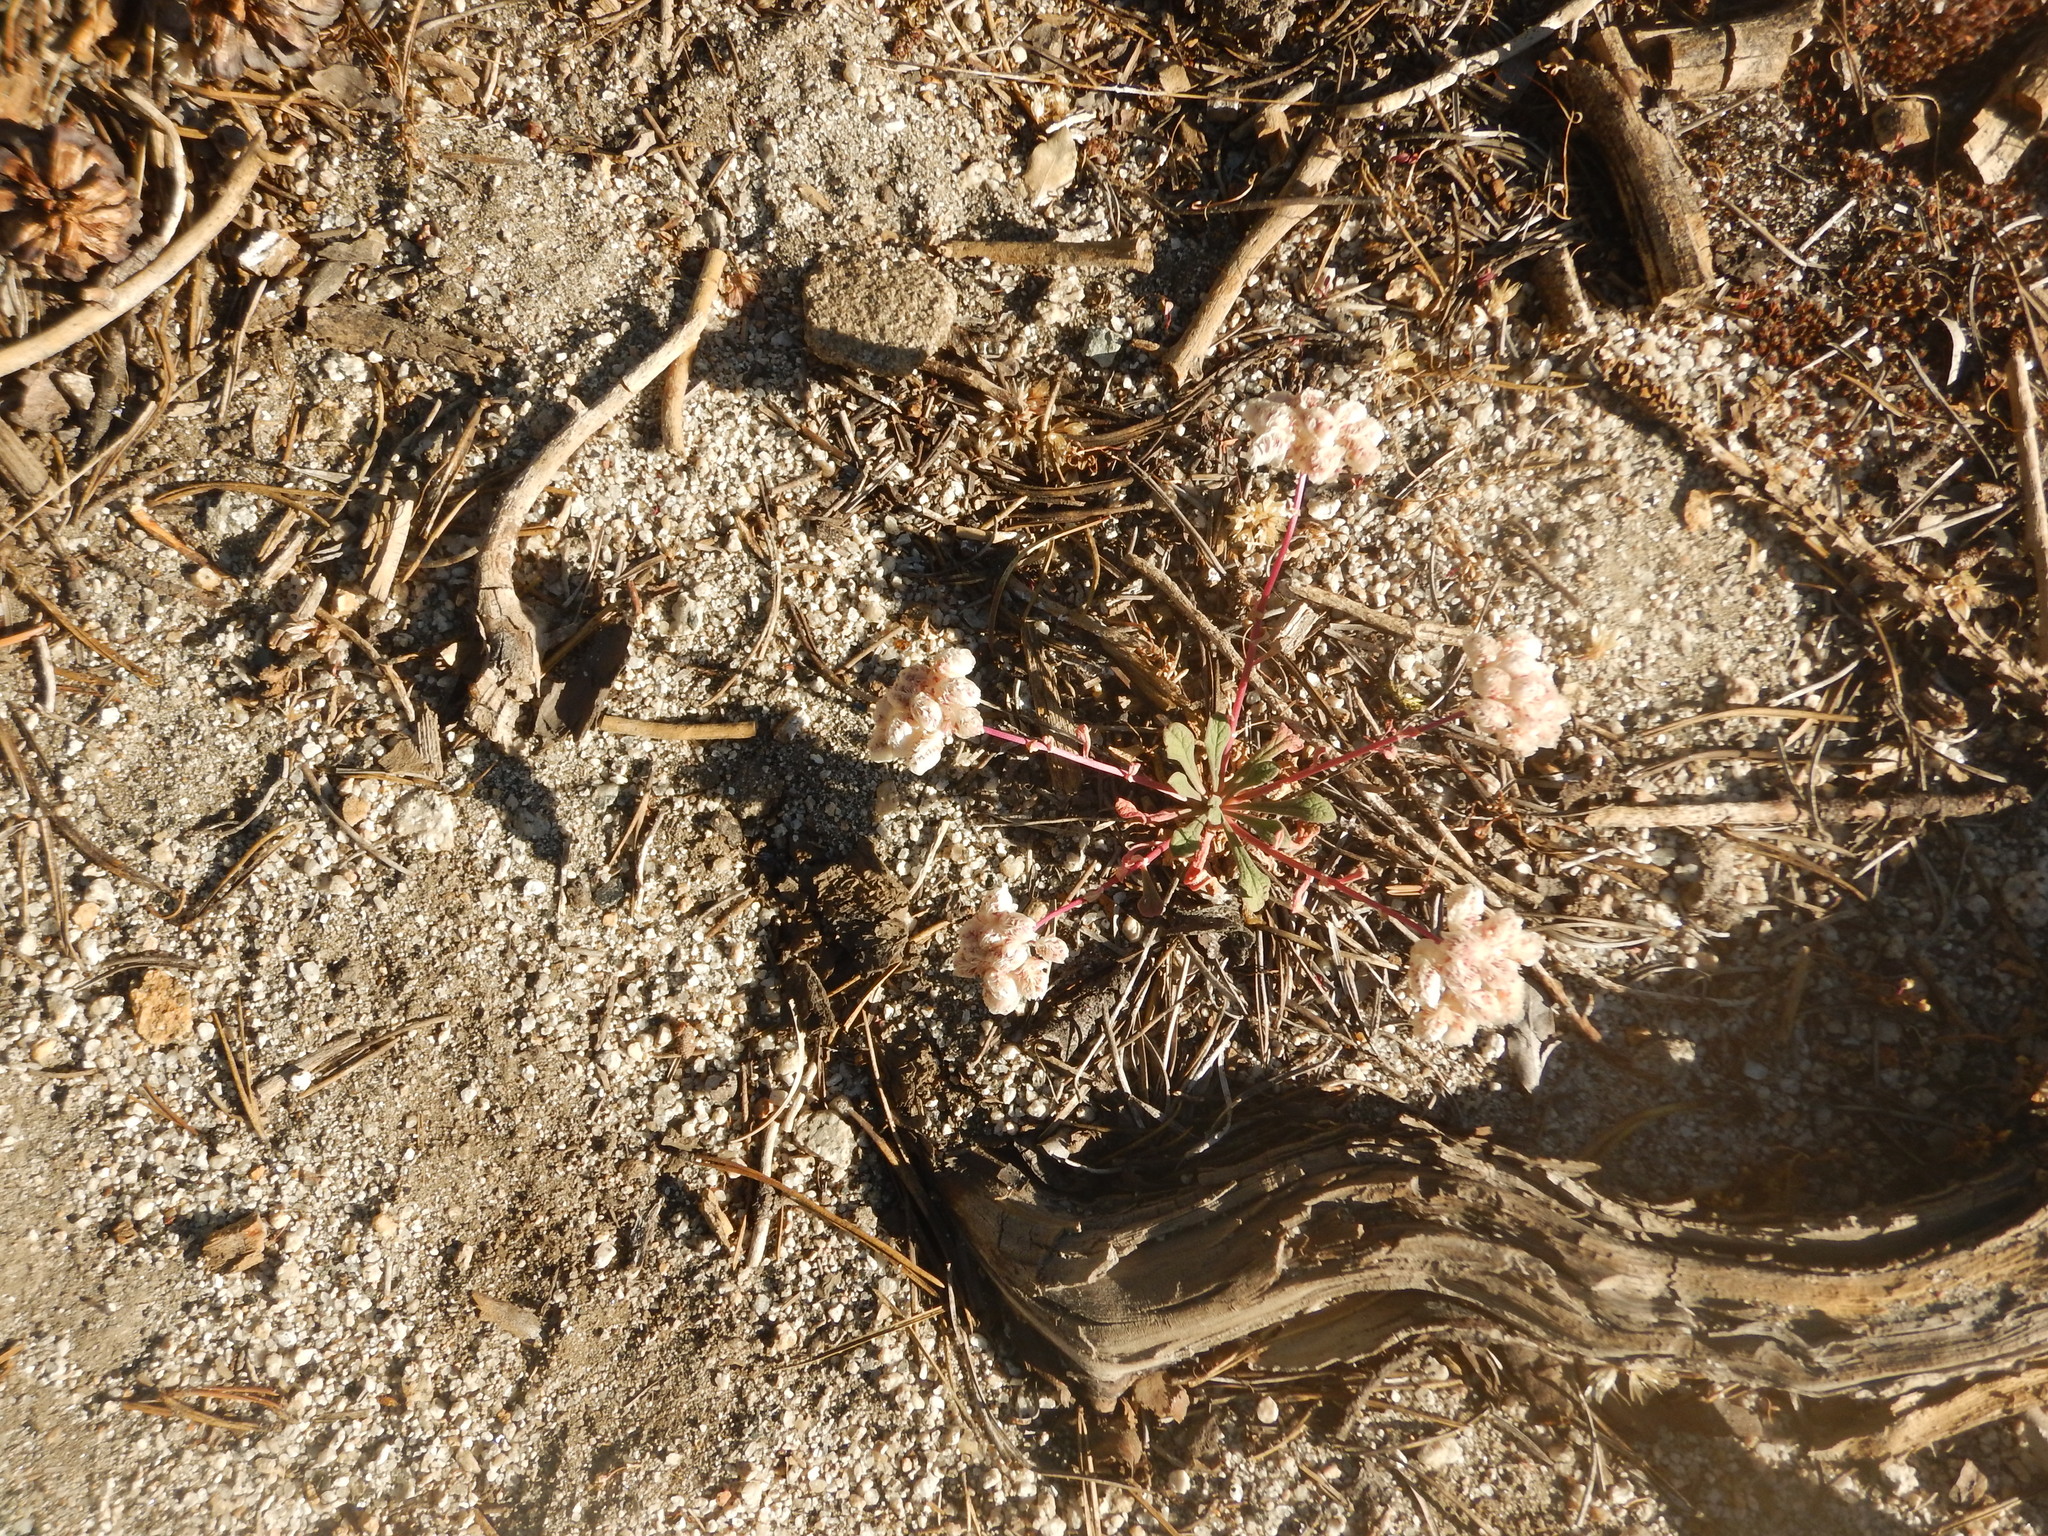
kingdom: Plantae
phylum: Tracheophyta
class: Magnoliopsida
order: Caryophyllales
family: Montiaceae
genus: Calyptridium
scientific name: Calyptridium monospermum
